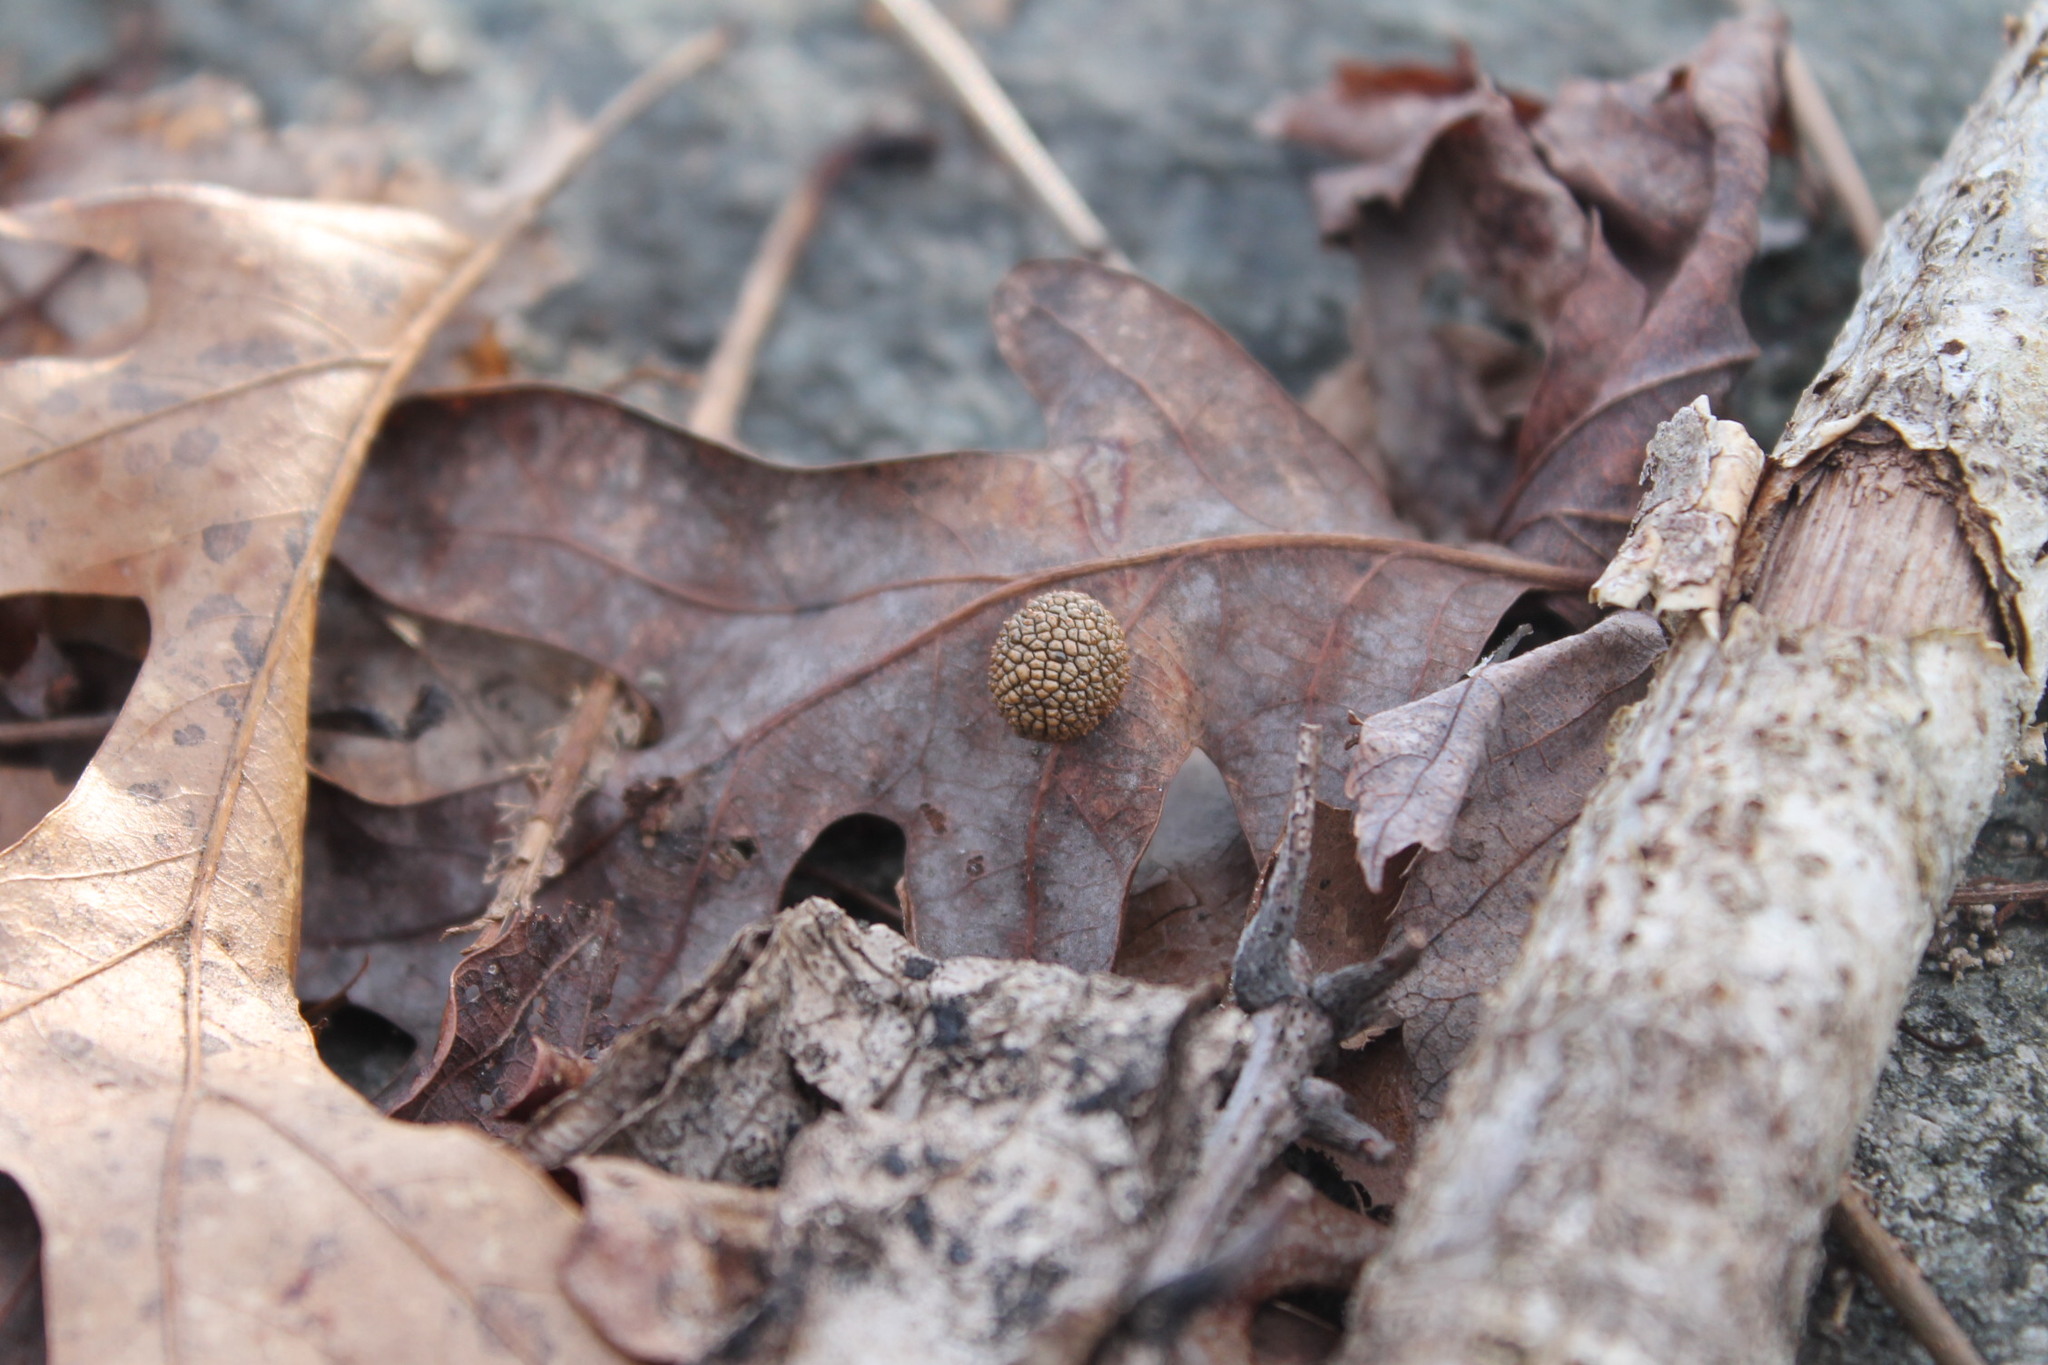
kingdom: Animalia
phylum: Arthropoda
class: Insecta
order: Hymenoptera
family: Cynipidae
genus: Acraspis
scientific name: Acraspis
